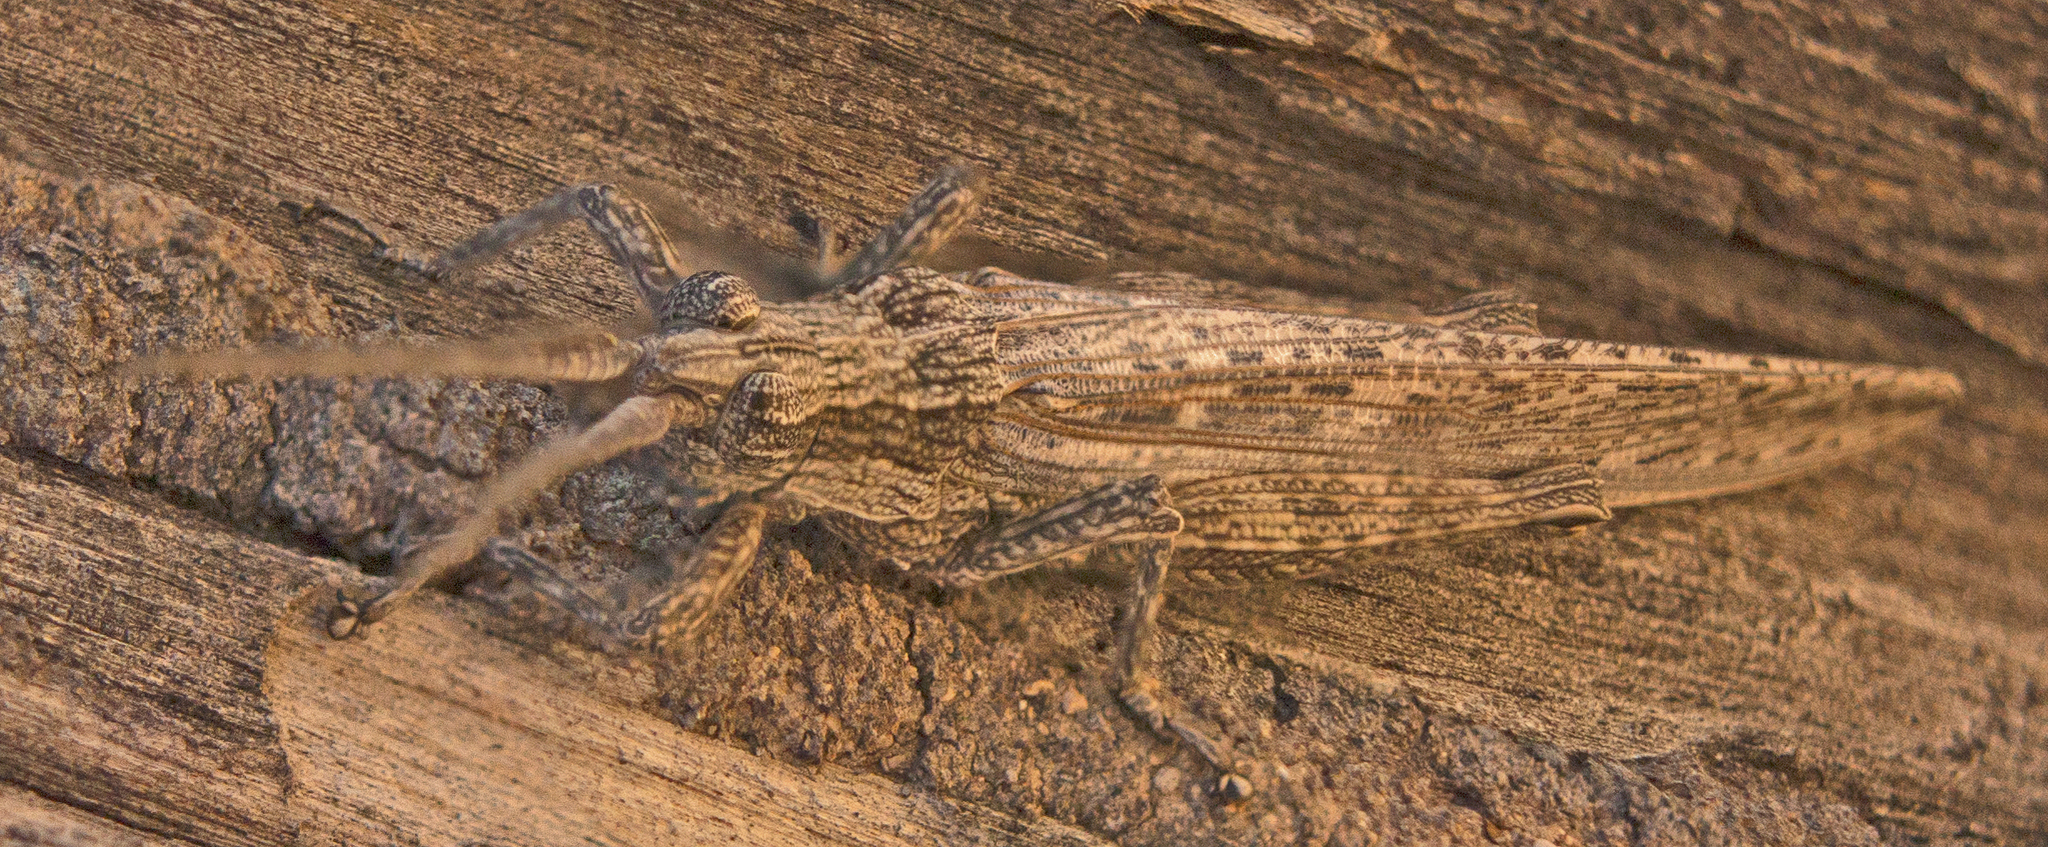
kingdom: Animalia
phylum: Arthropoda
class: Insecta
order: Orthoptera
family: Acrididae
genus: Coryphistes
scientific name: Coryphistes ruricola
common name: Bark-mimicking grasshopper
